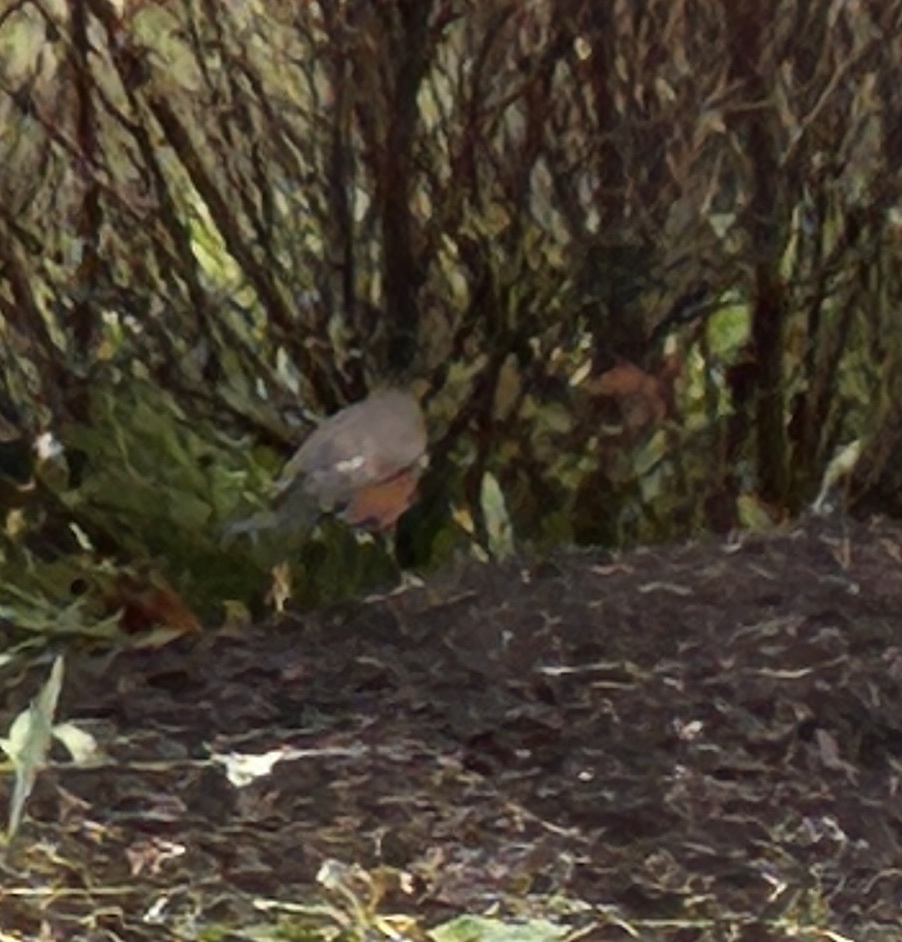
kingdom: Animalia
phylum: Chordata
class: Aves
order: Passeriformes
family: Turdidae
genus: Turdus
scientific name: Turdus migratorius
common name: American robin
